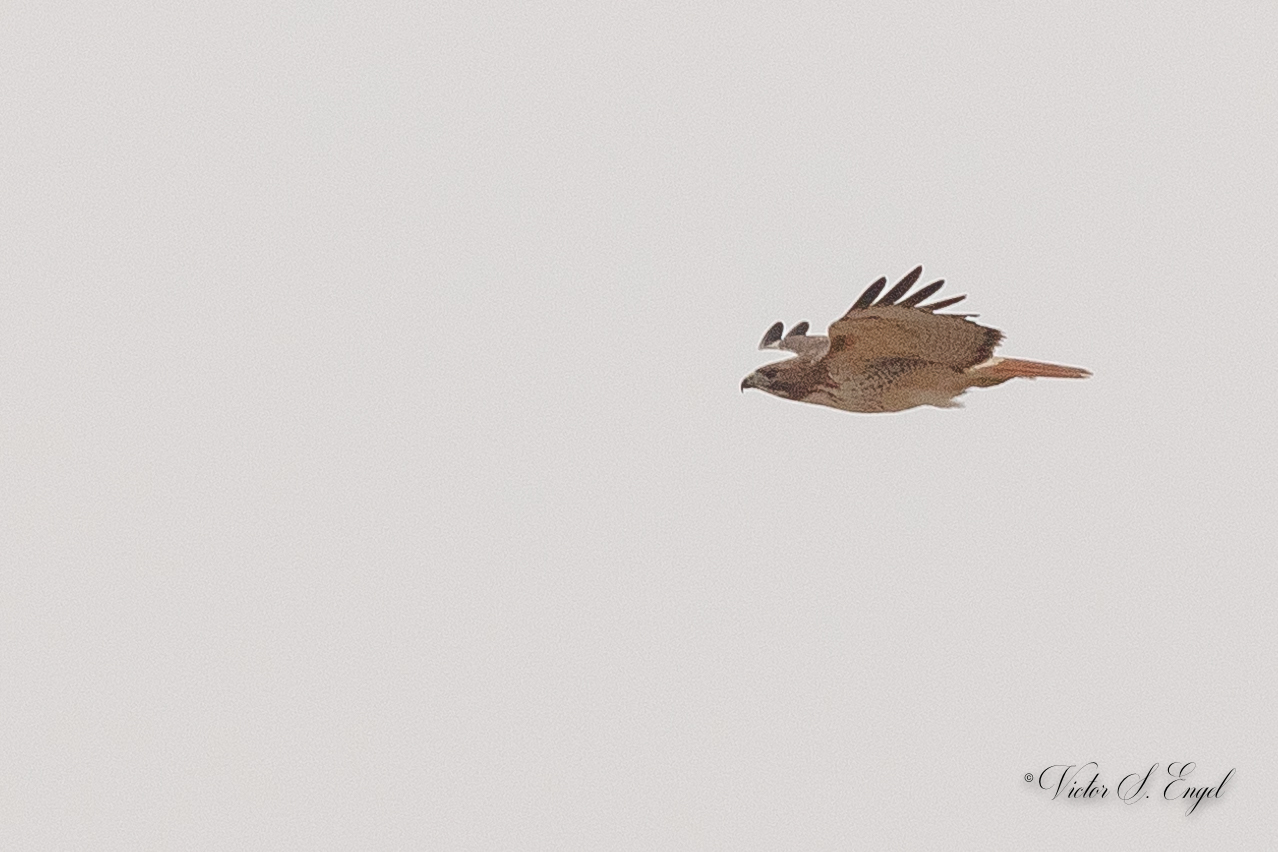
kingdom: Animalia
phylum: Chordata
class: Aves
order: Accipitriformes
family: Accipitridae
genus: Buteo
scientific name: Buteo jamaicensis
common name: Red-tailed hawk
